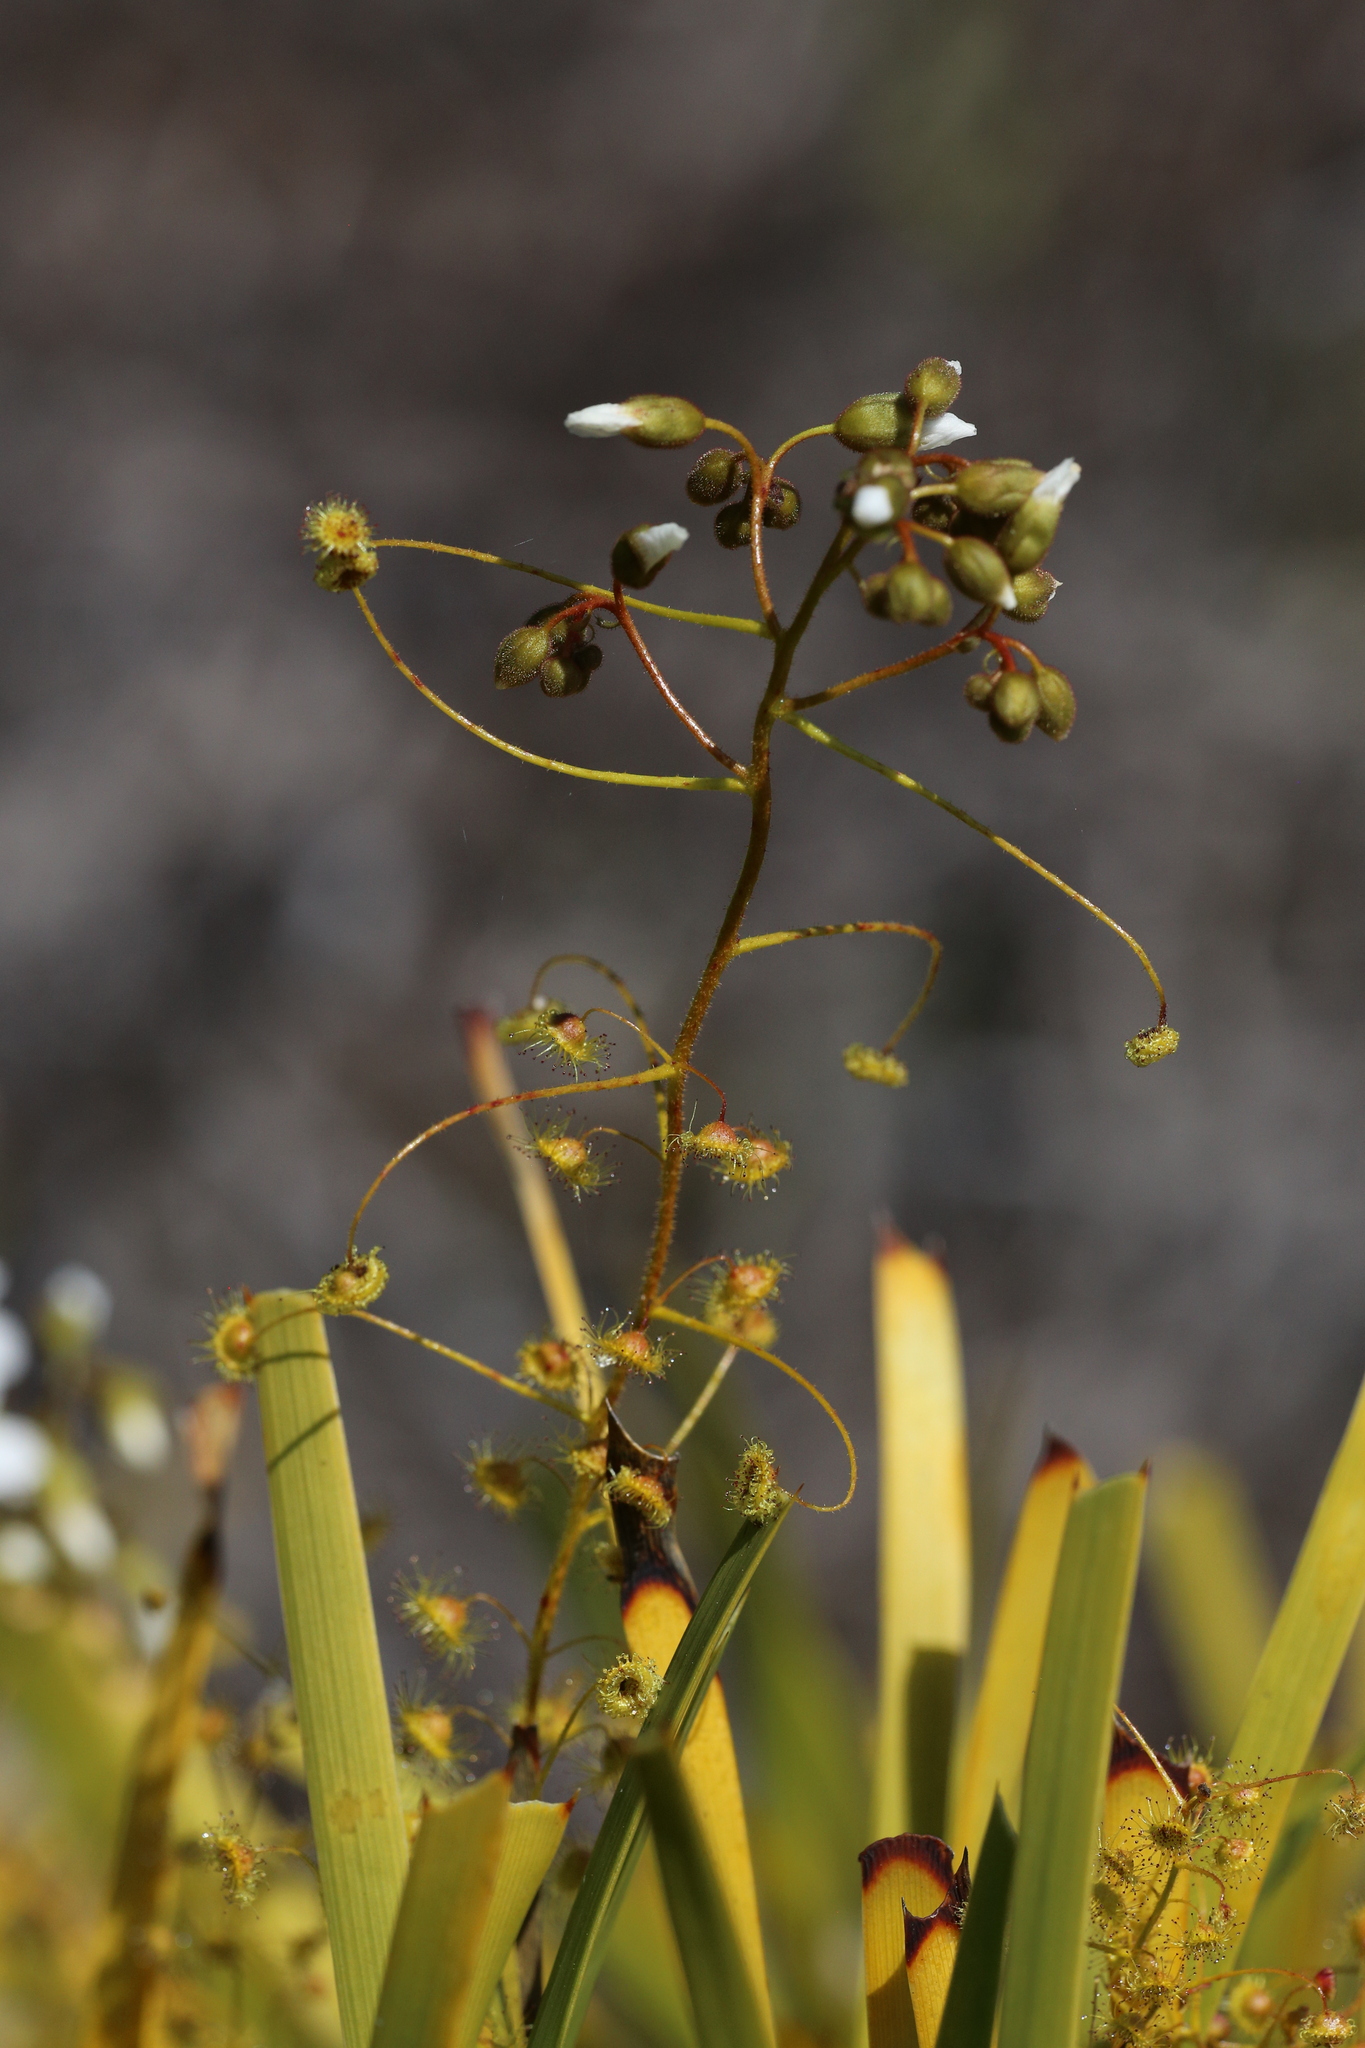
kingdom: Plantae
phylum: Tracheophyta
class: Magnoliopsida
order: Caryophyllales
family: Droseraceae
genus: Drosera
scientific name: Drosera macrantha
